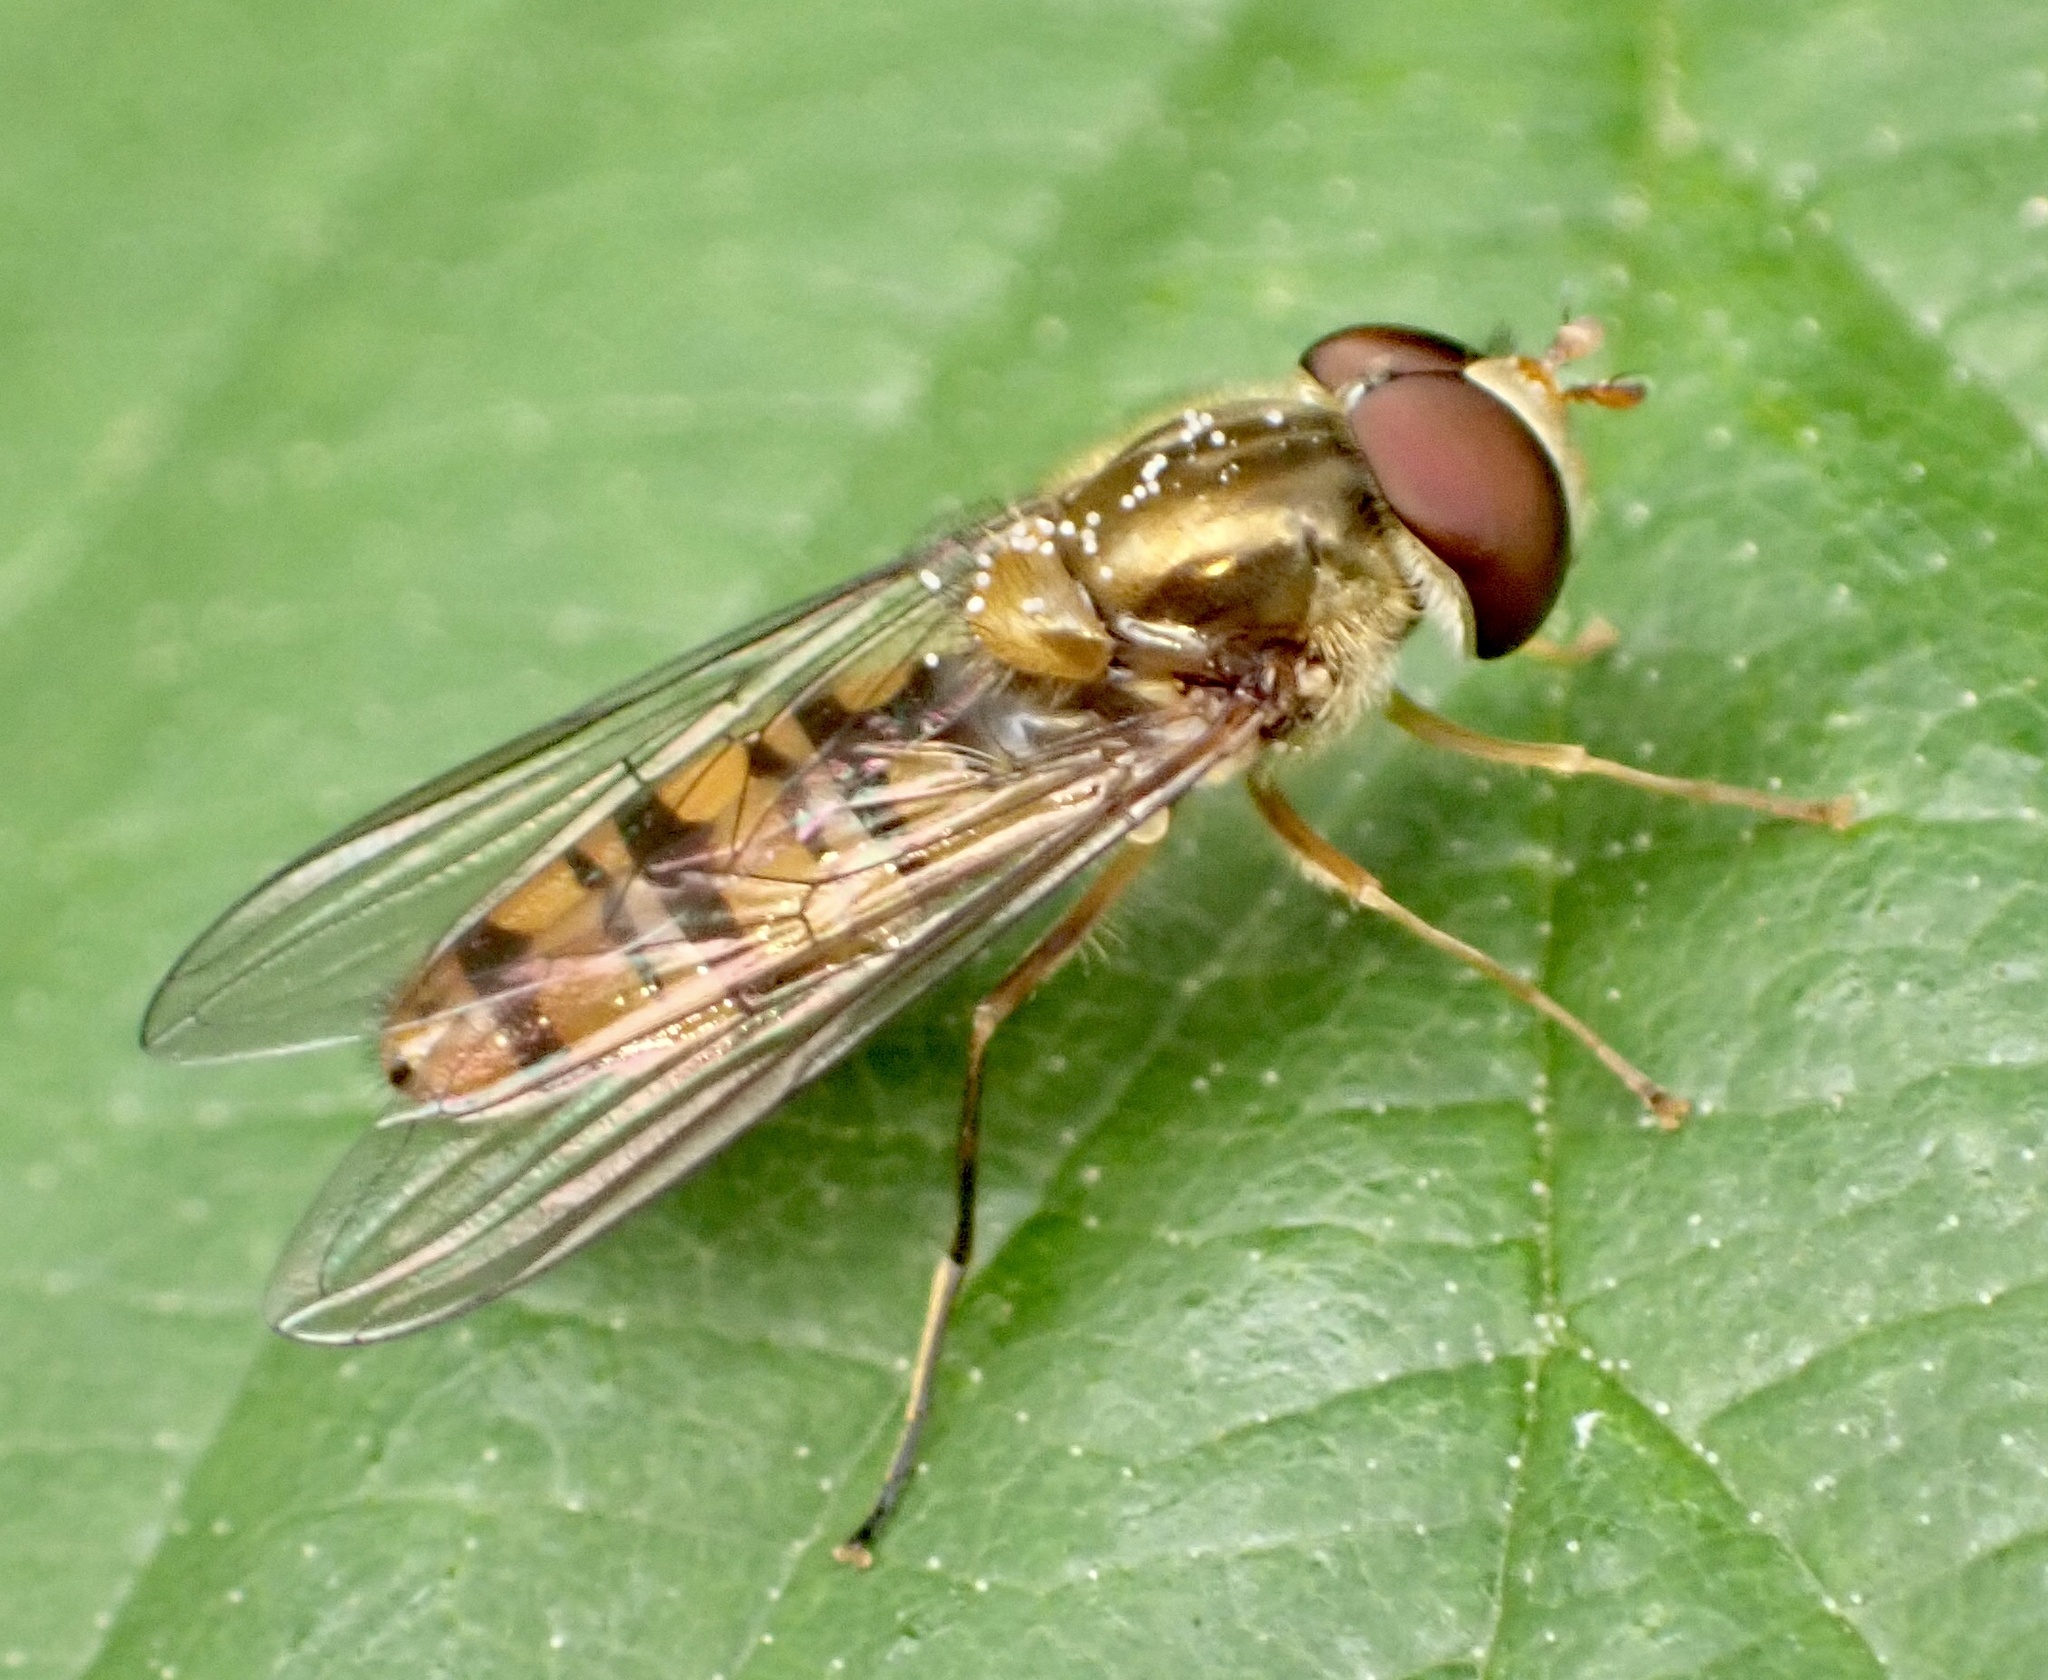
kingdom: Animalia
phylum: Arthropoda
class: Insecta
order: Diptera
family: Syrphidae
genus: Episyrphus
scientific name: Episyrphus balteatus
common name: Marmalade hoverfly
